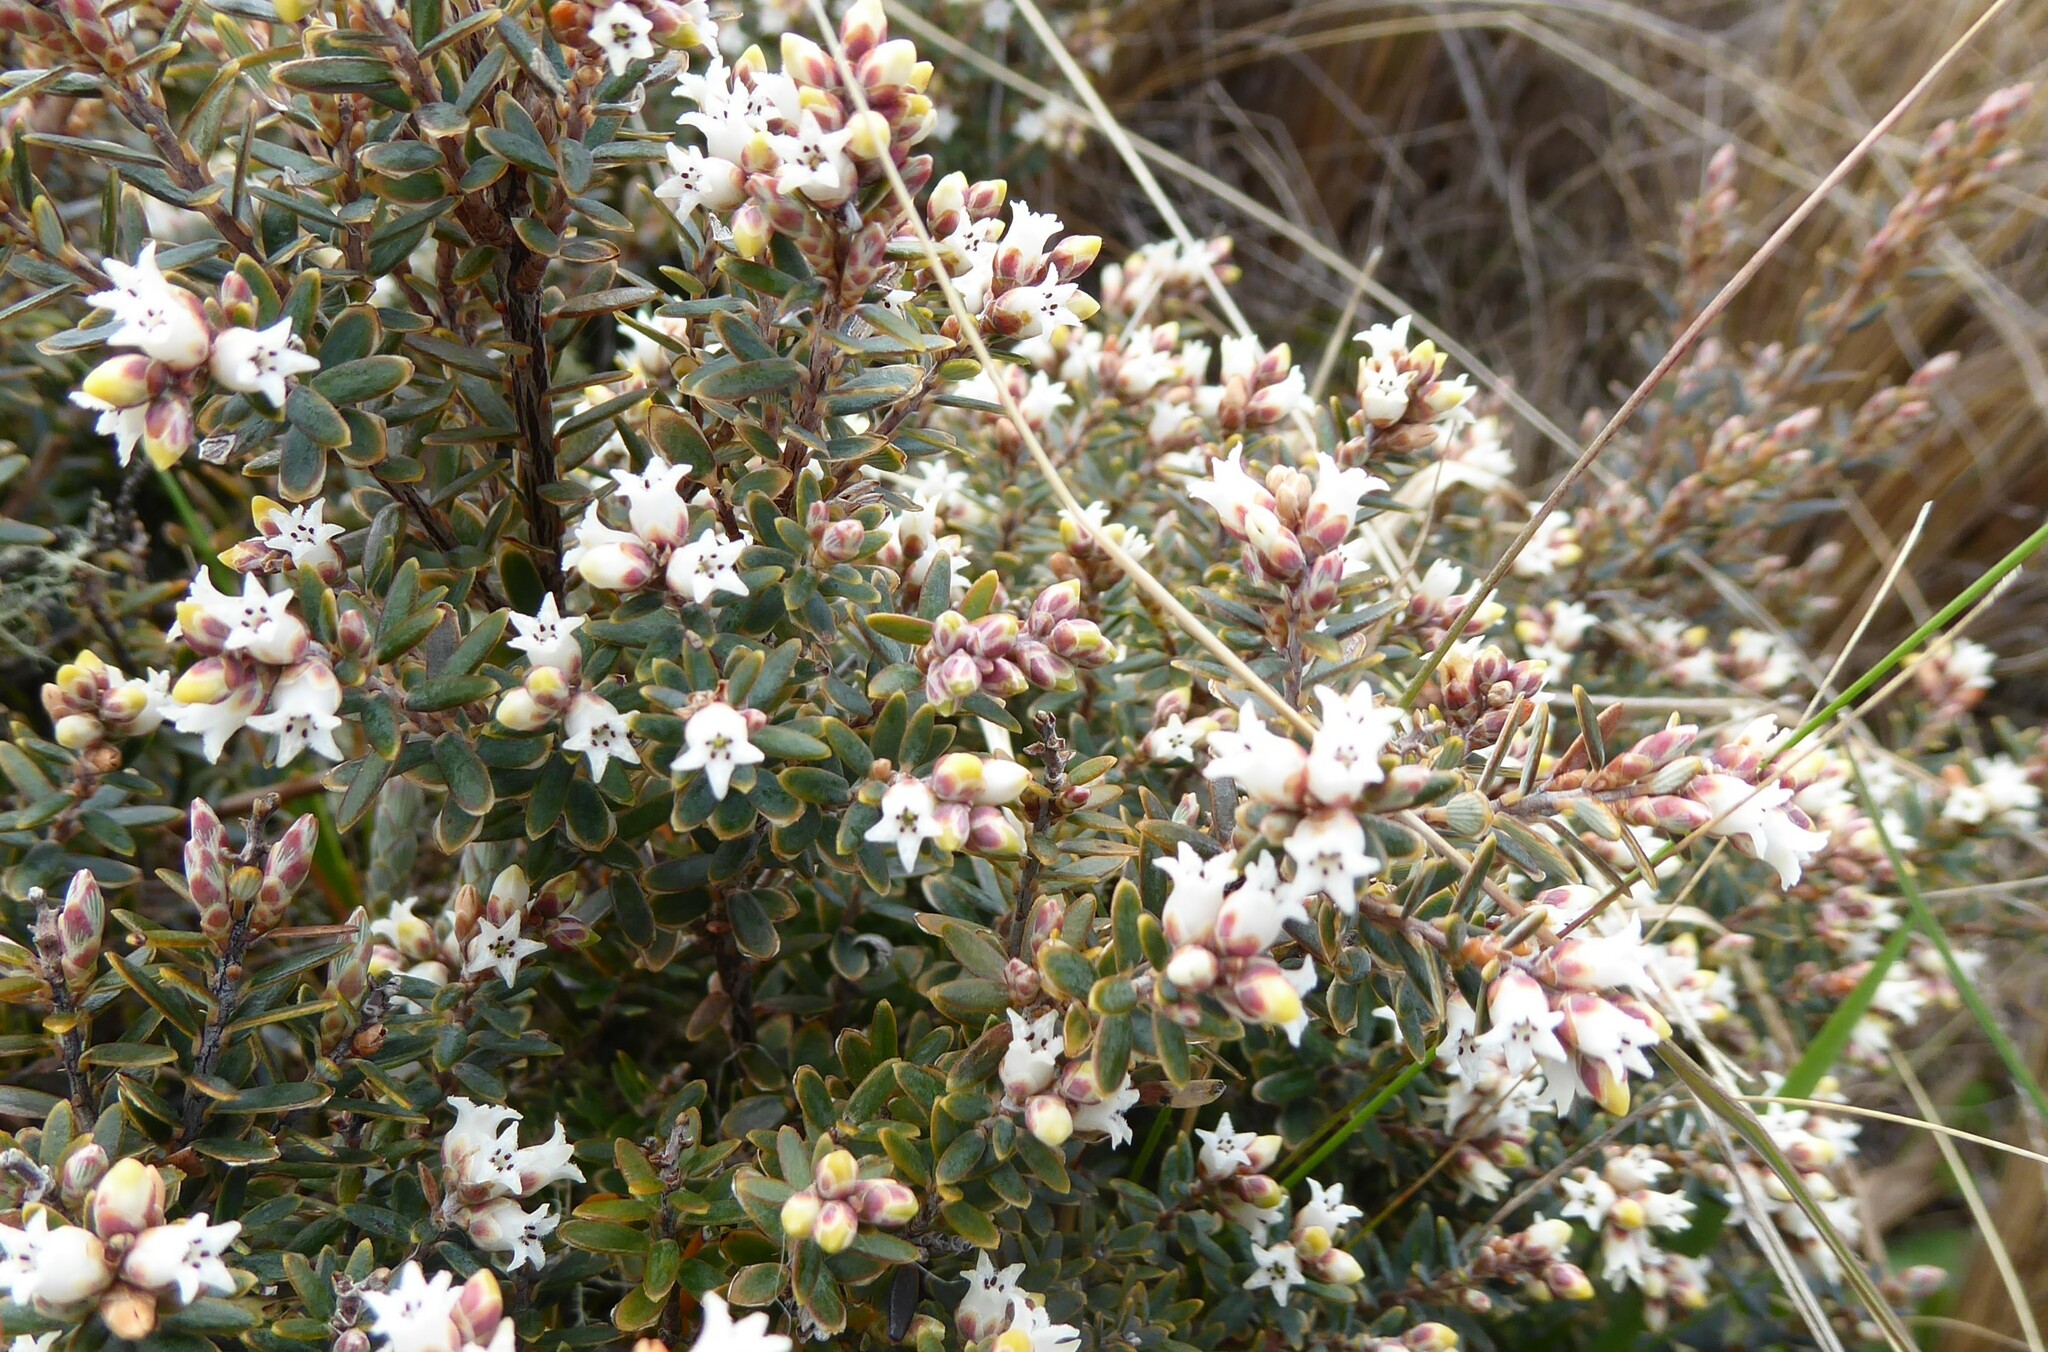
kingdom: Plantae
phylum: Tracheophyta
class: Magnoliopsida
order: Ericales
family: Ericaceae
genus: Acrothamnus
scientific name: Acrothamnus colensoi
